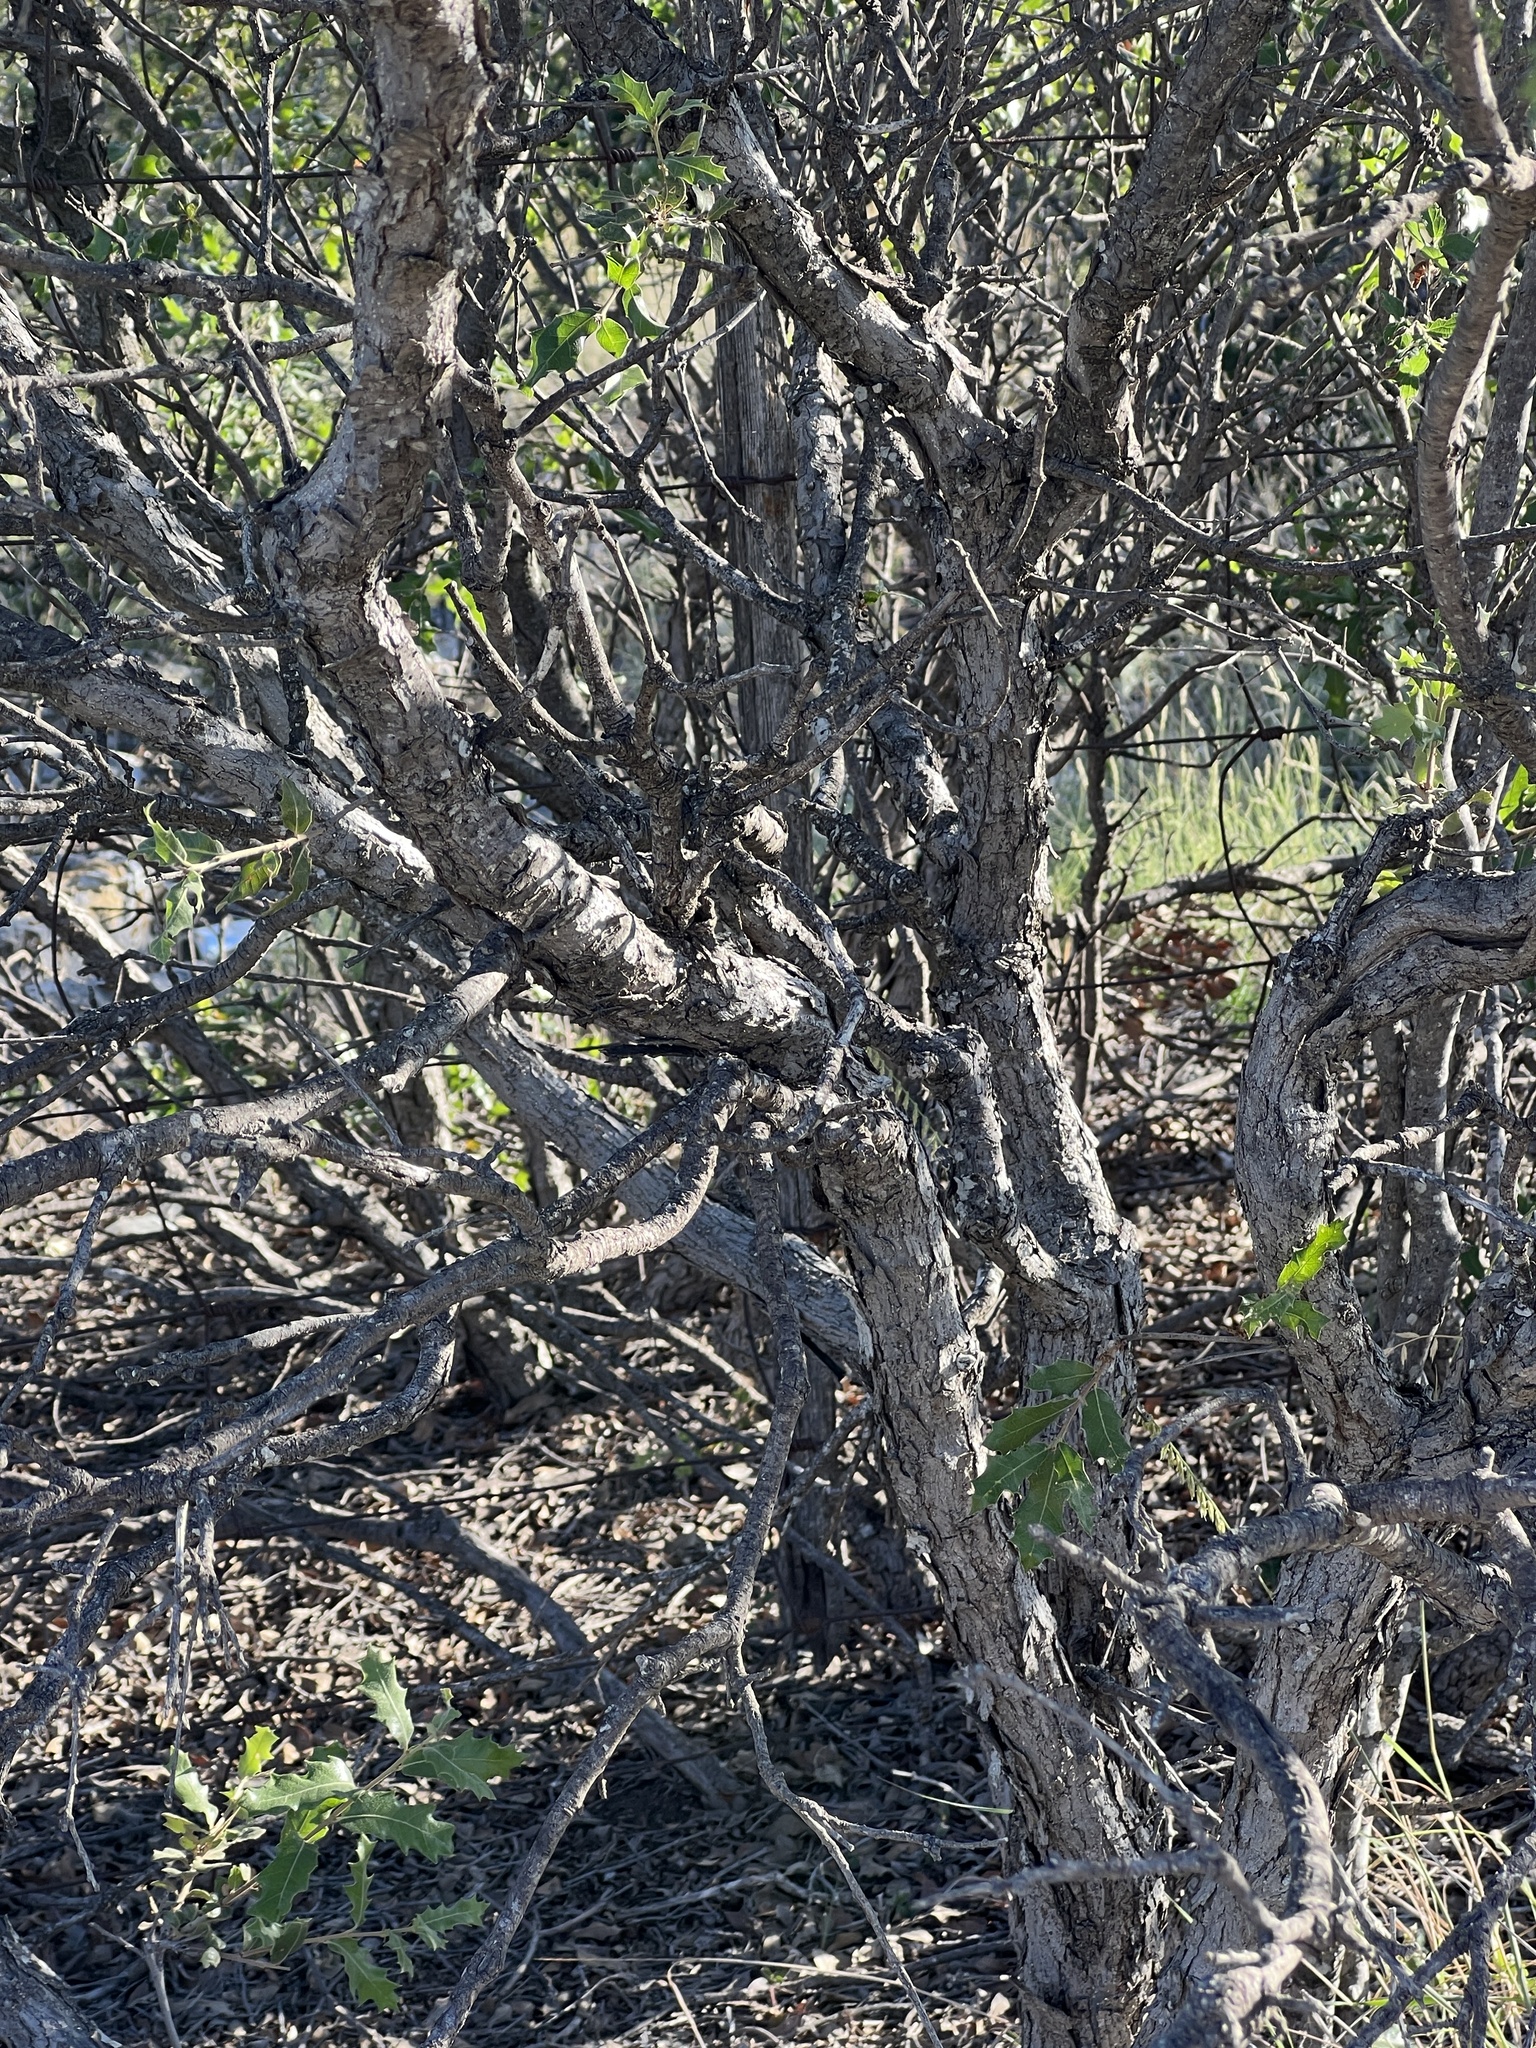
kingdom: Plantae
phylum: Tracheophyta
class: Magnoliopsida
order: Fagales
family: Fagaceae
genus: Quercus
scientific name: Quercus vaseyana
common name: Sandpaper oak
